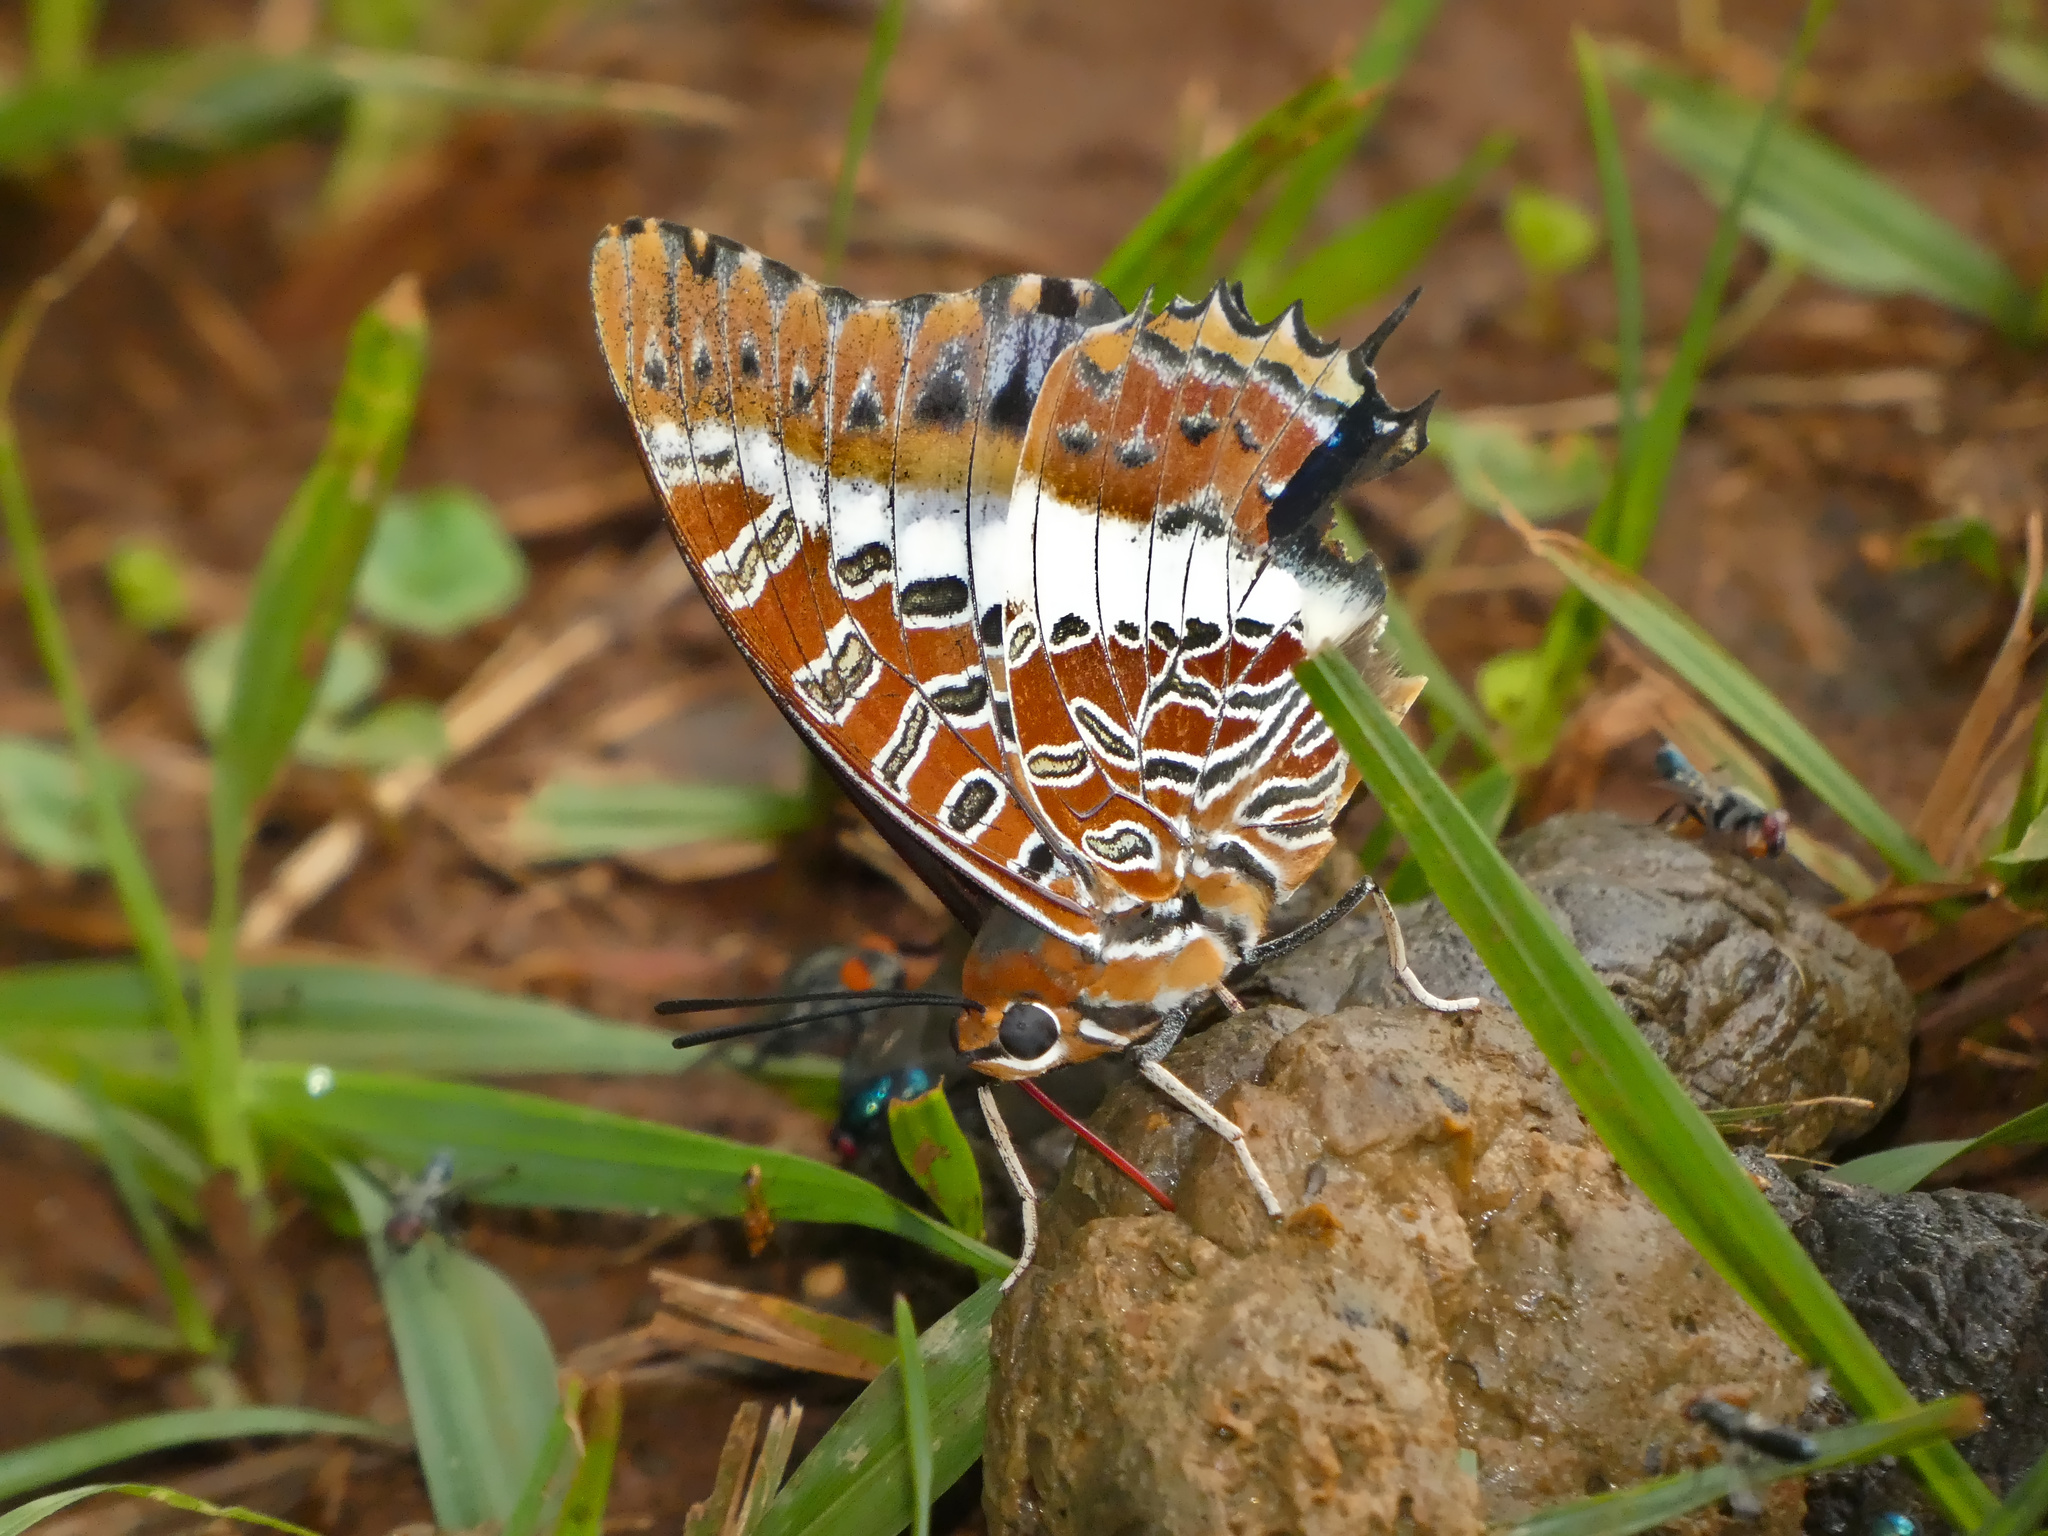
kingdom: Animalia
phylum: Arthropoda
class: Insecta
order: Lepidoptera
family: Nymphalidae
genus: Charaxes
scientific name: Charaxes brutus
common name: White-barred charaxes
